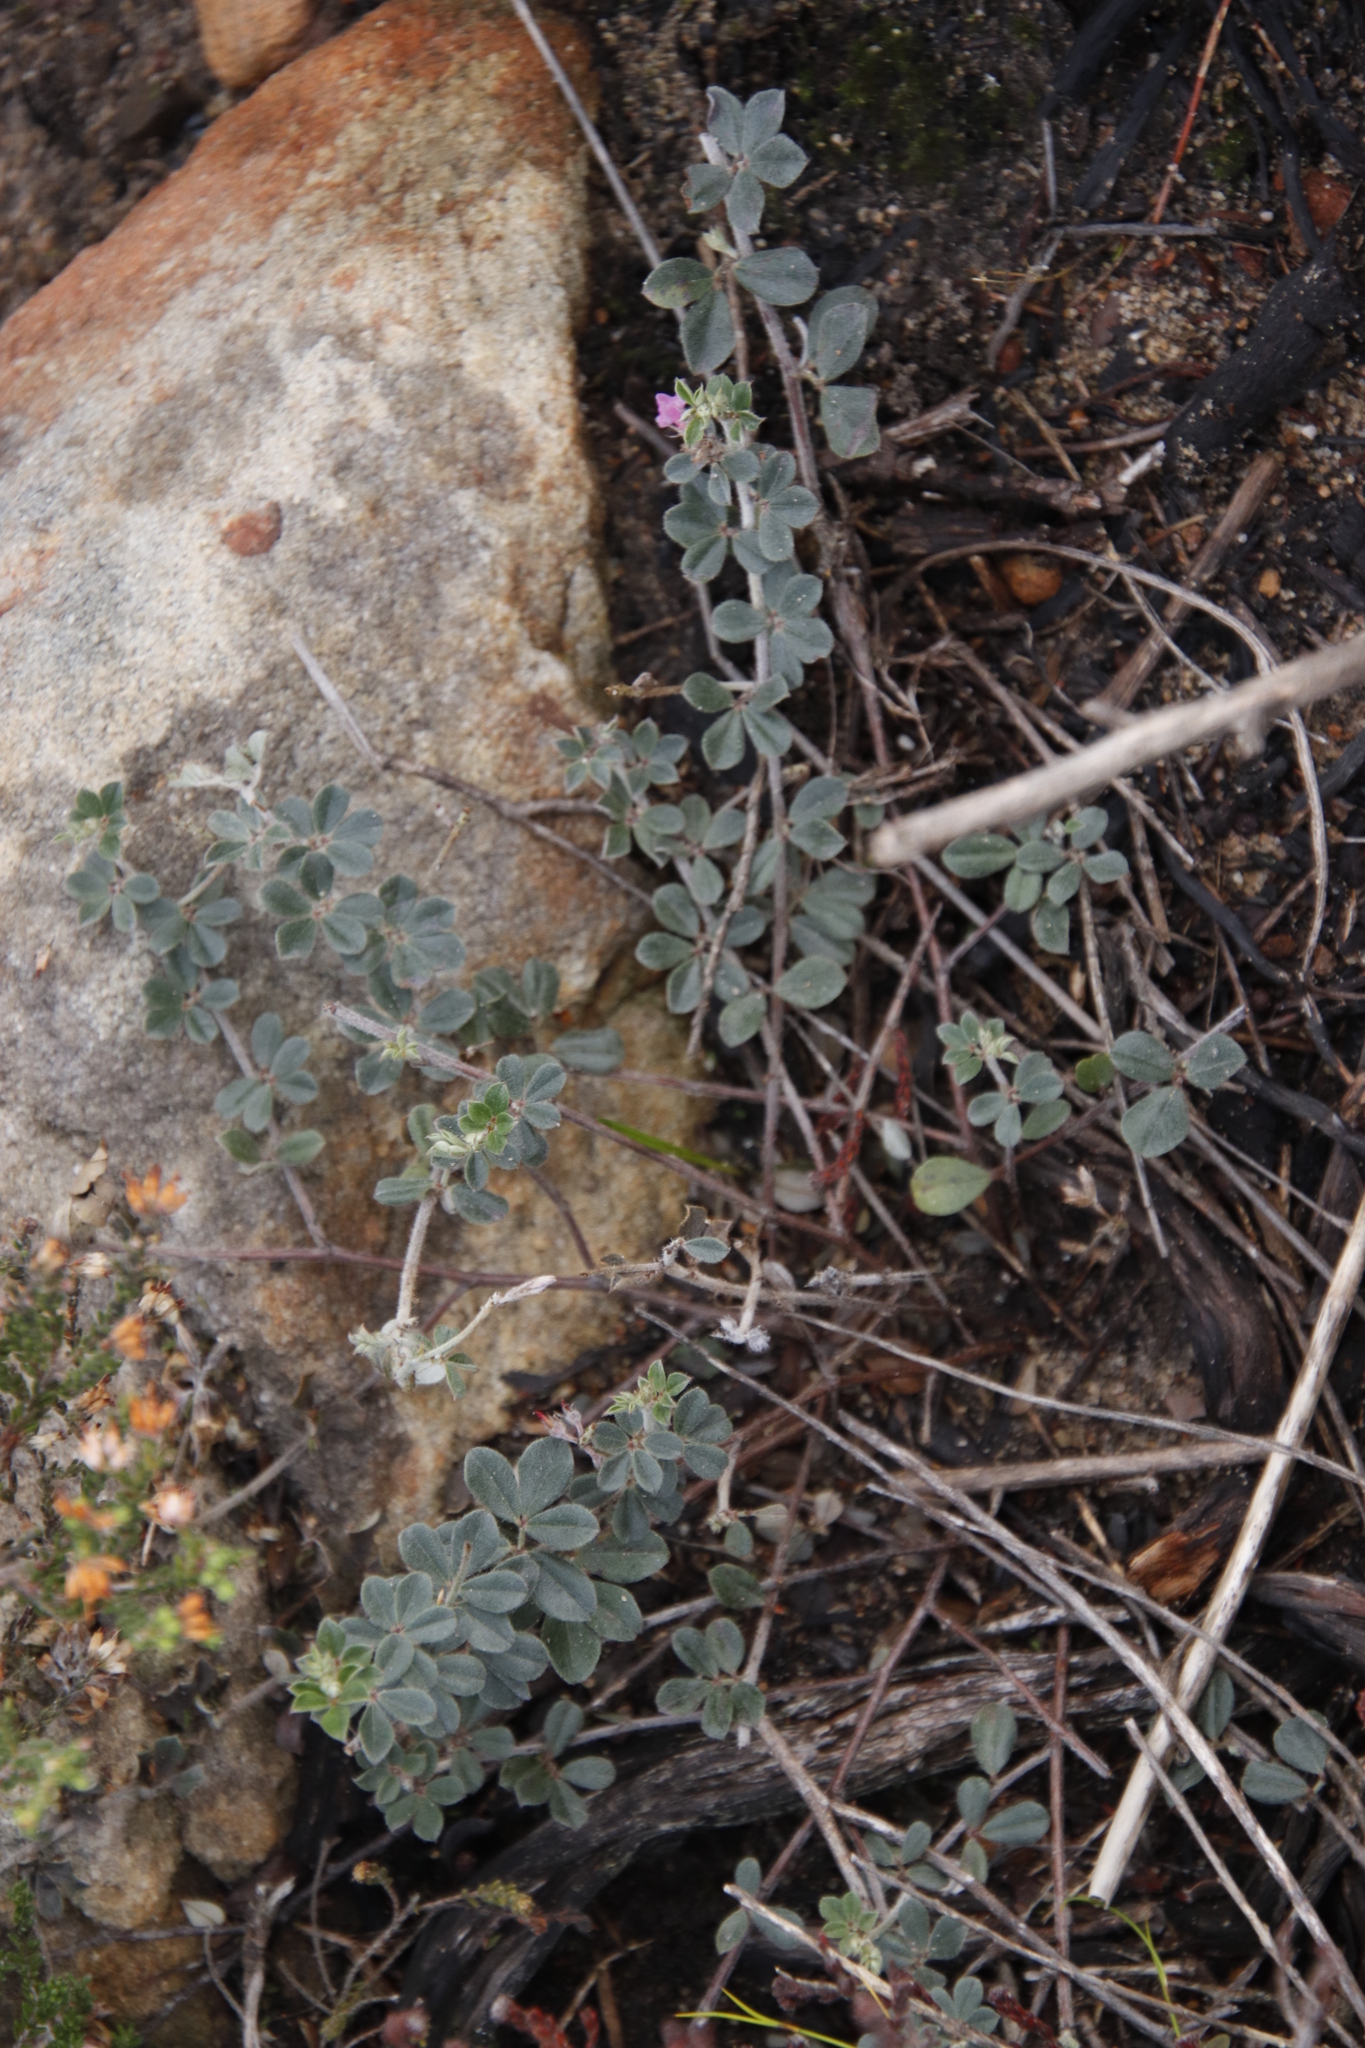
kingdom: Plantae
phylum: Tracheophyta
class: Magnoliopsida
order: Fabales
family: Fabaceae
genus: Indigofera
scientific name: Indigofera mauritanica
